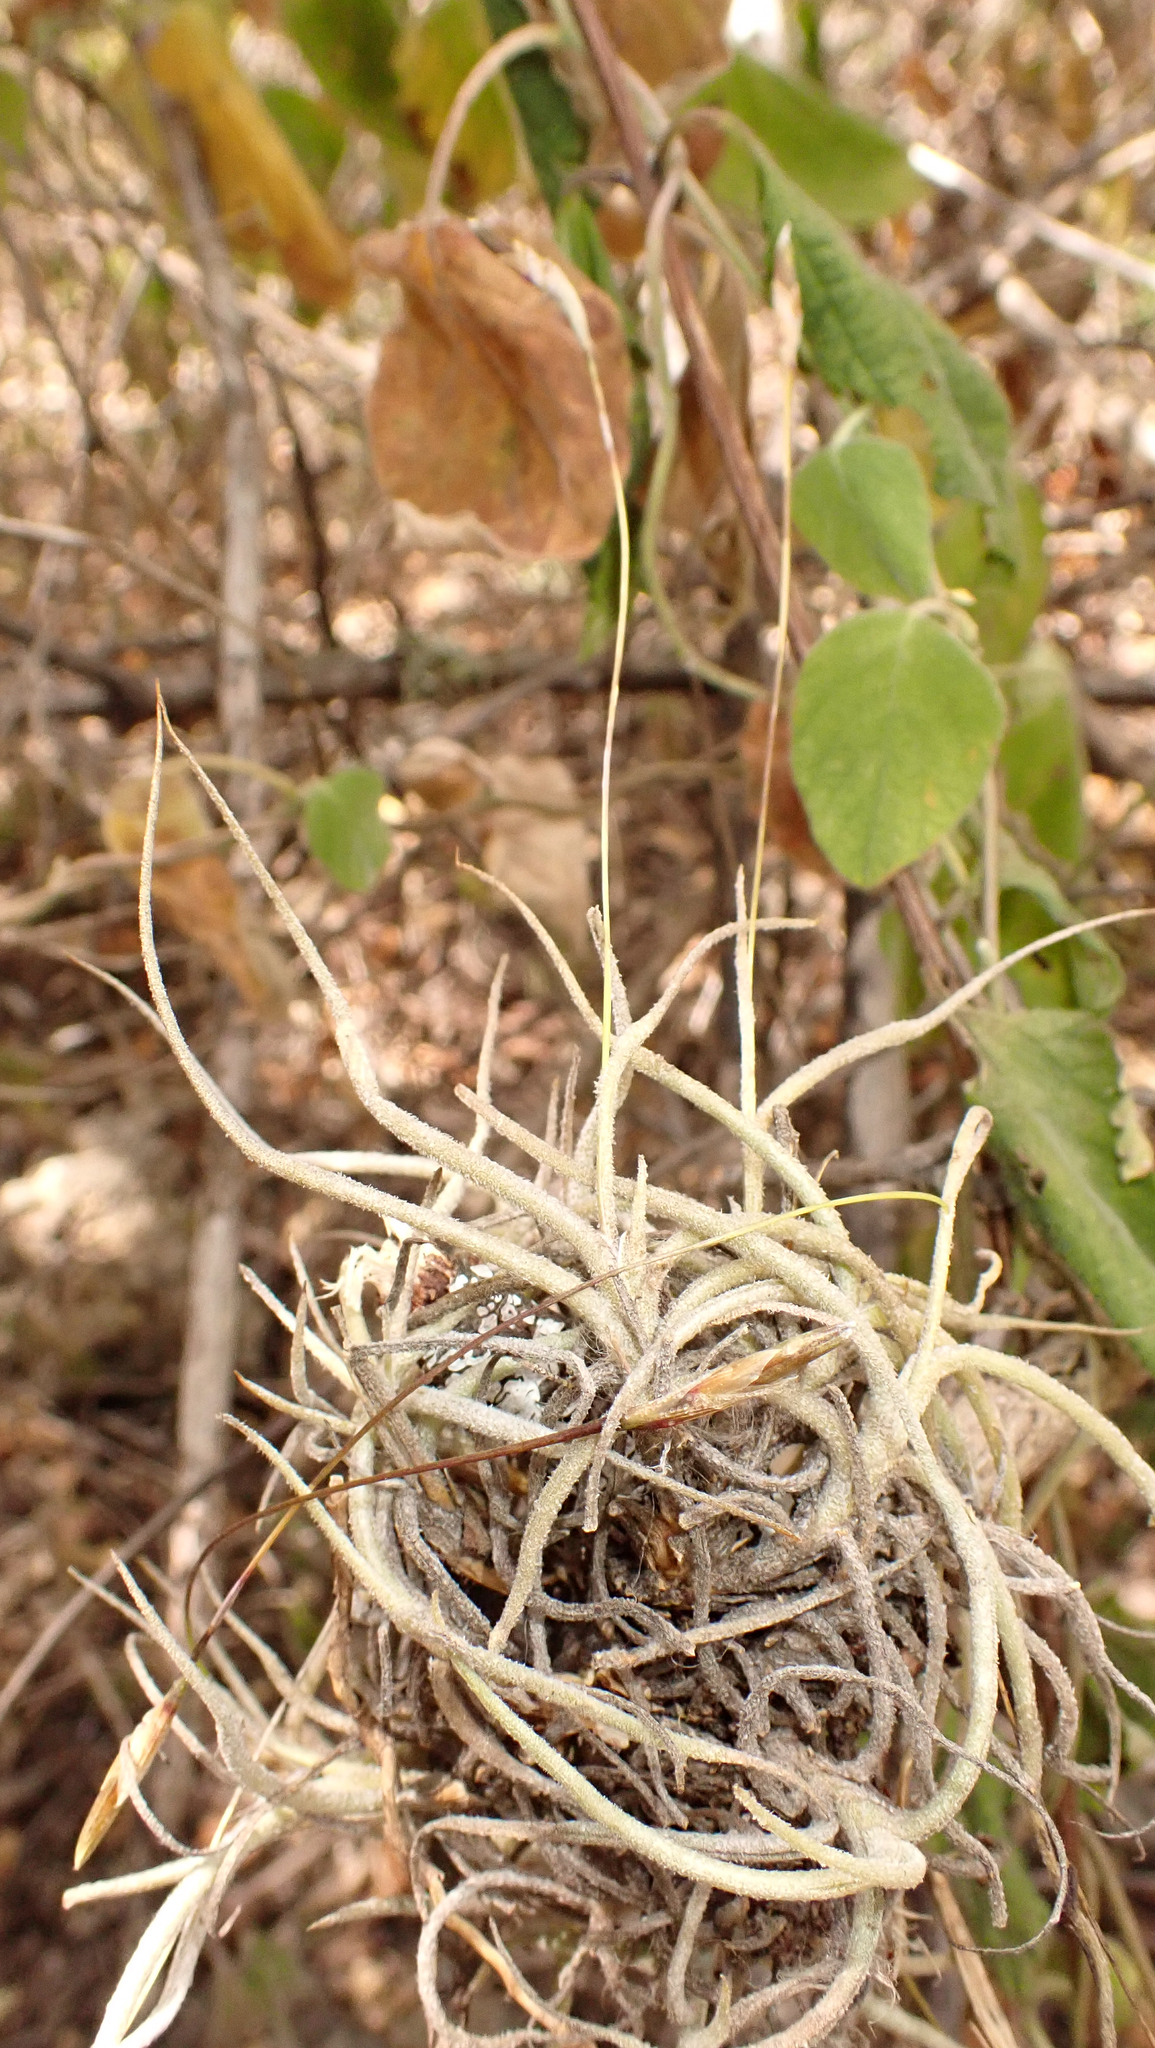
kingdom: Plantae
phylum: Tracheophyta
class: Liliopsida
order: Poales
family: Bromeliaceae
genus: Tillandsia
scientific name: Tillandsia recurvata
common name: Small ballmoss
